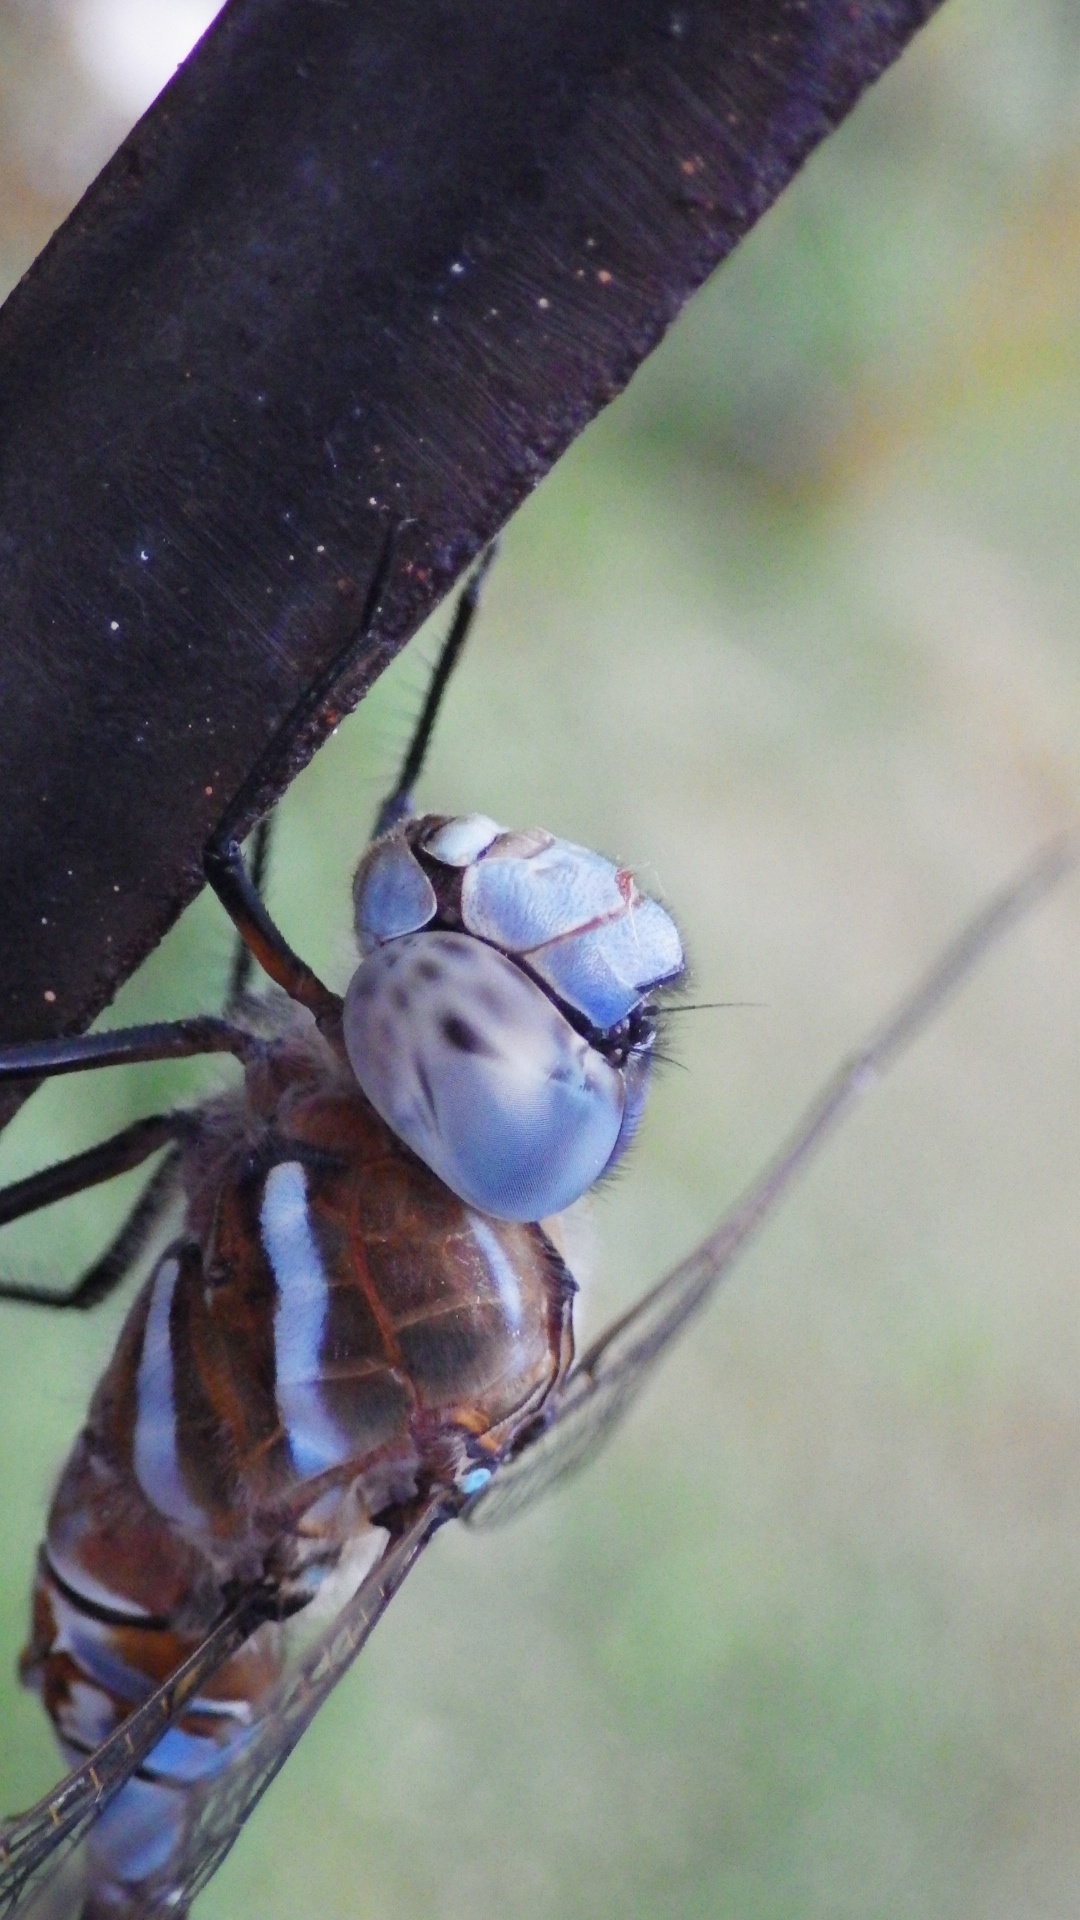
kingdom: Animalia
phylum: Arthropoda
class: Insecta
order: Odonata
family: Aeshnidae
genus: Rhionaeschna
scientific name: Rhionaeschna multicolor
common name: Blue-eyed darner
